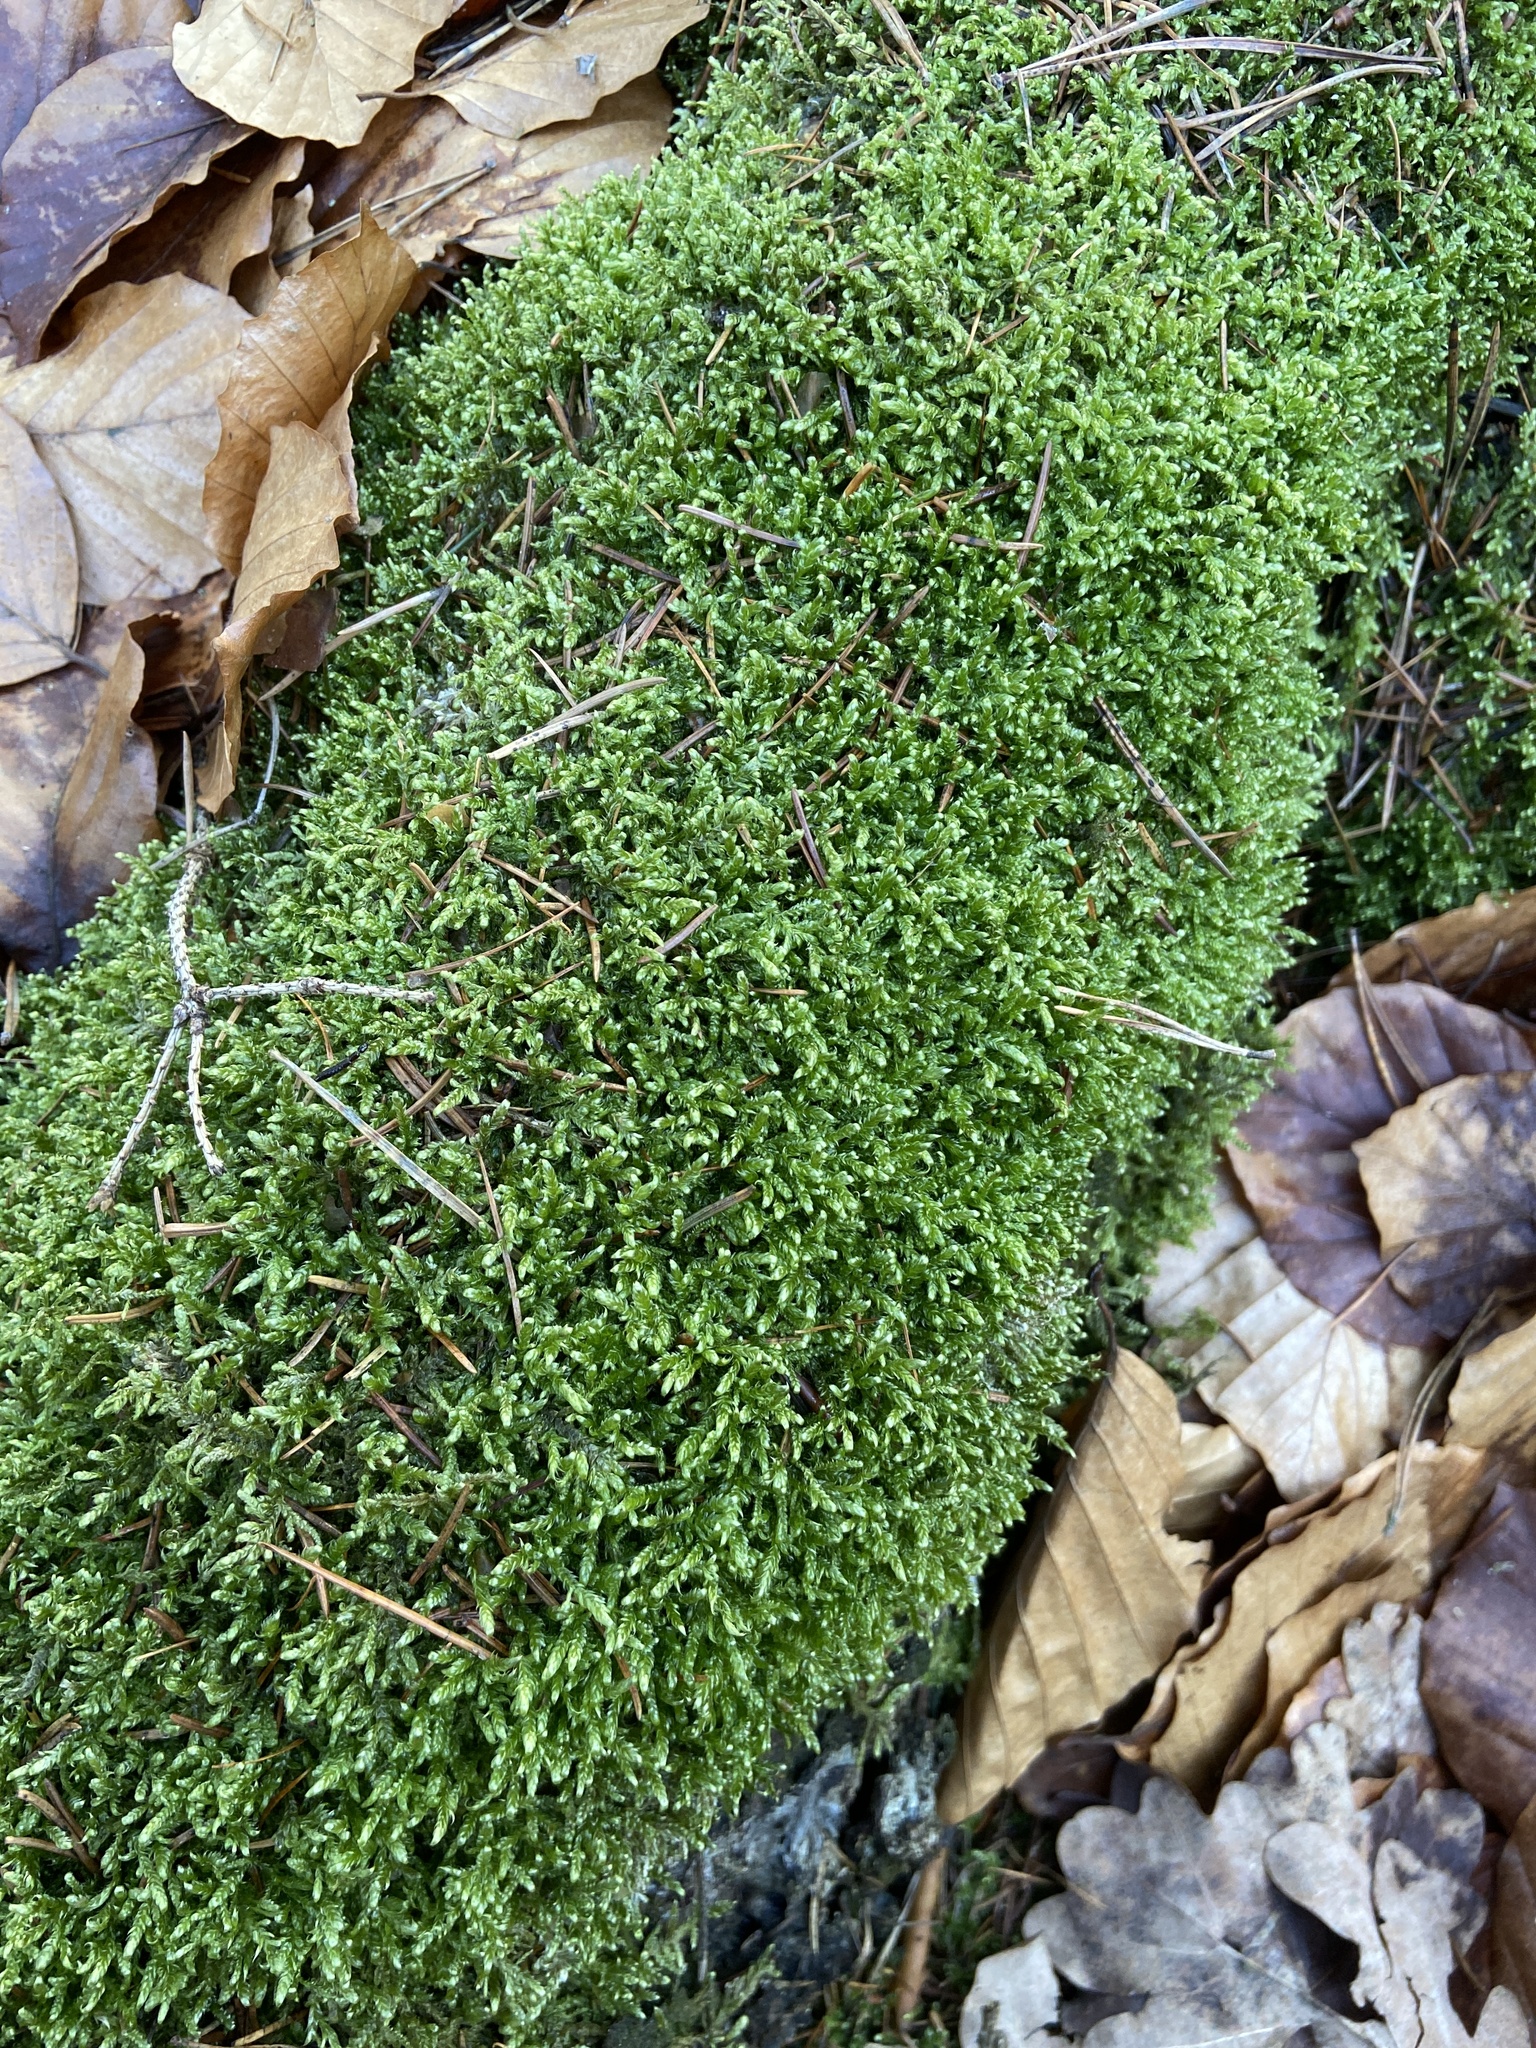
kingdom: Plantae
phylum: Bryophyta
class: Bryopsida
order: Hypnales
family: Hypnaceae
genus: Hypnum
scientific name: Hypnum cupressiforme
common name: Cypress-leaved plait-moss
